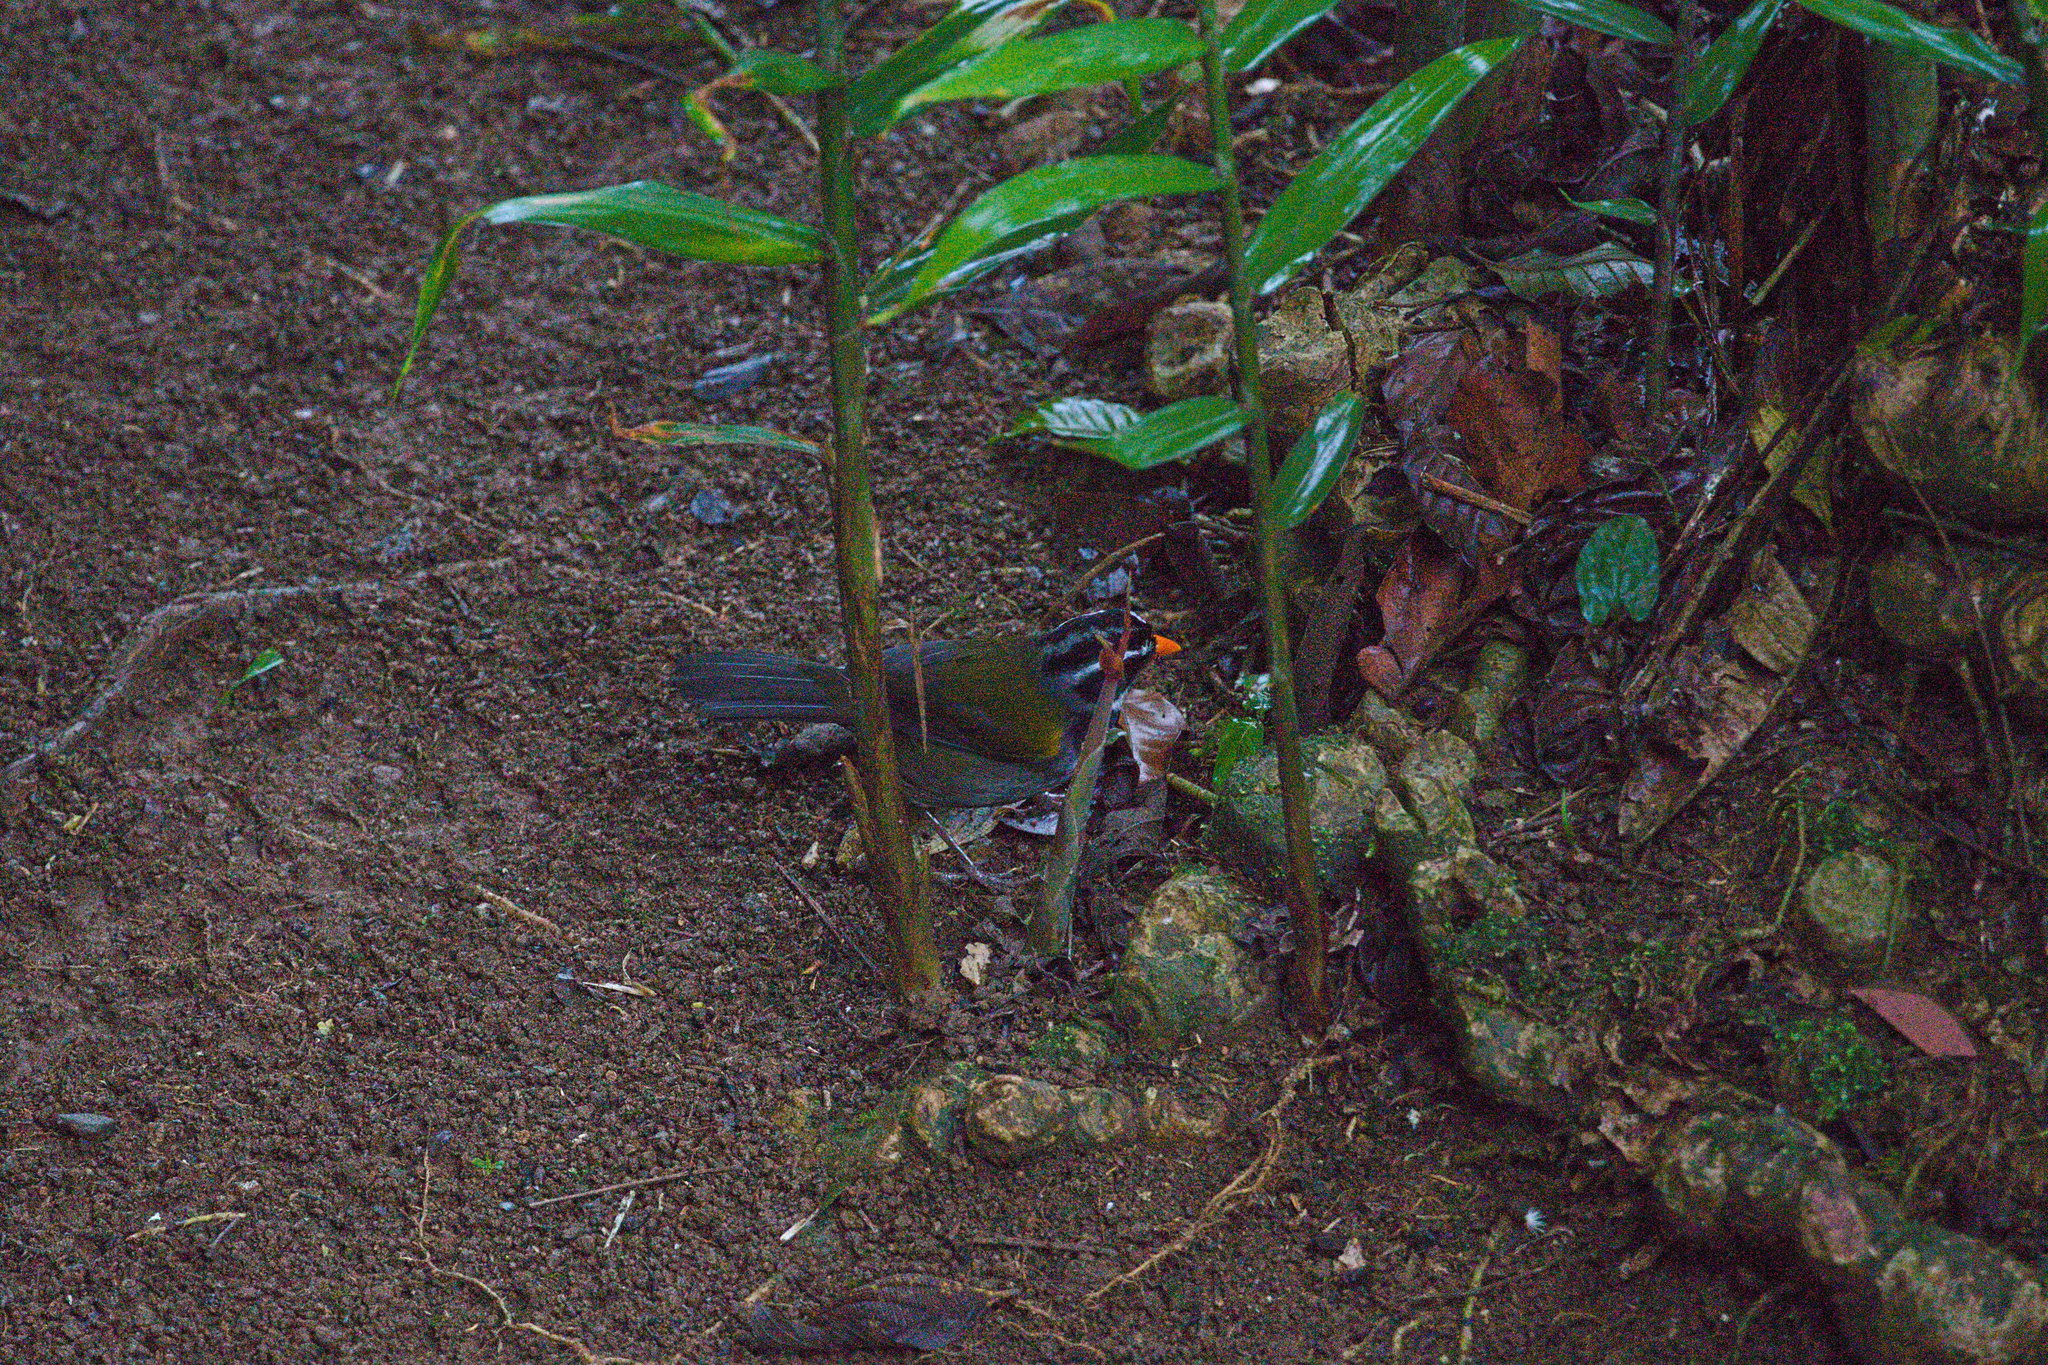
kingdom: Animalia
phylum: Chordata
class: Aves
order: Passeriformes
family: Passerellidae
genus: Arremon
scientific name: Arremon aurantiirostris
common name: Orange-billed sparrow
